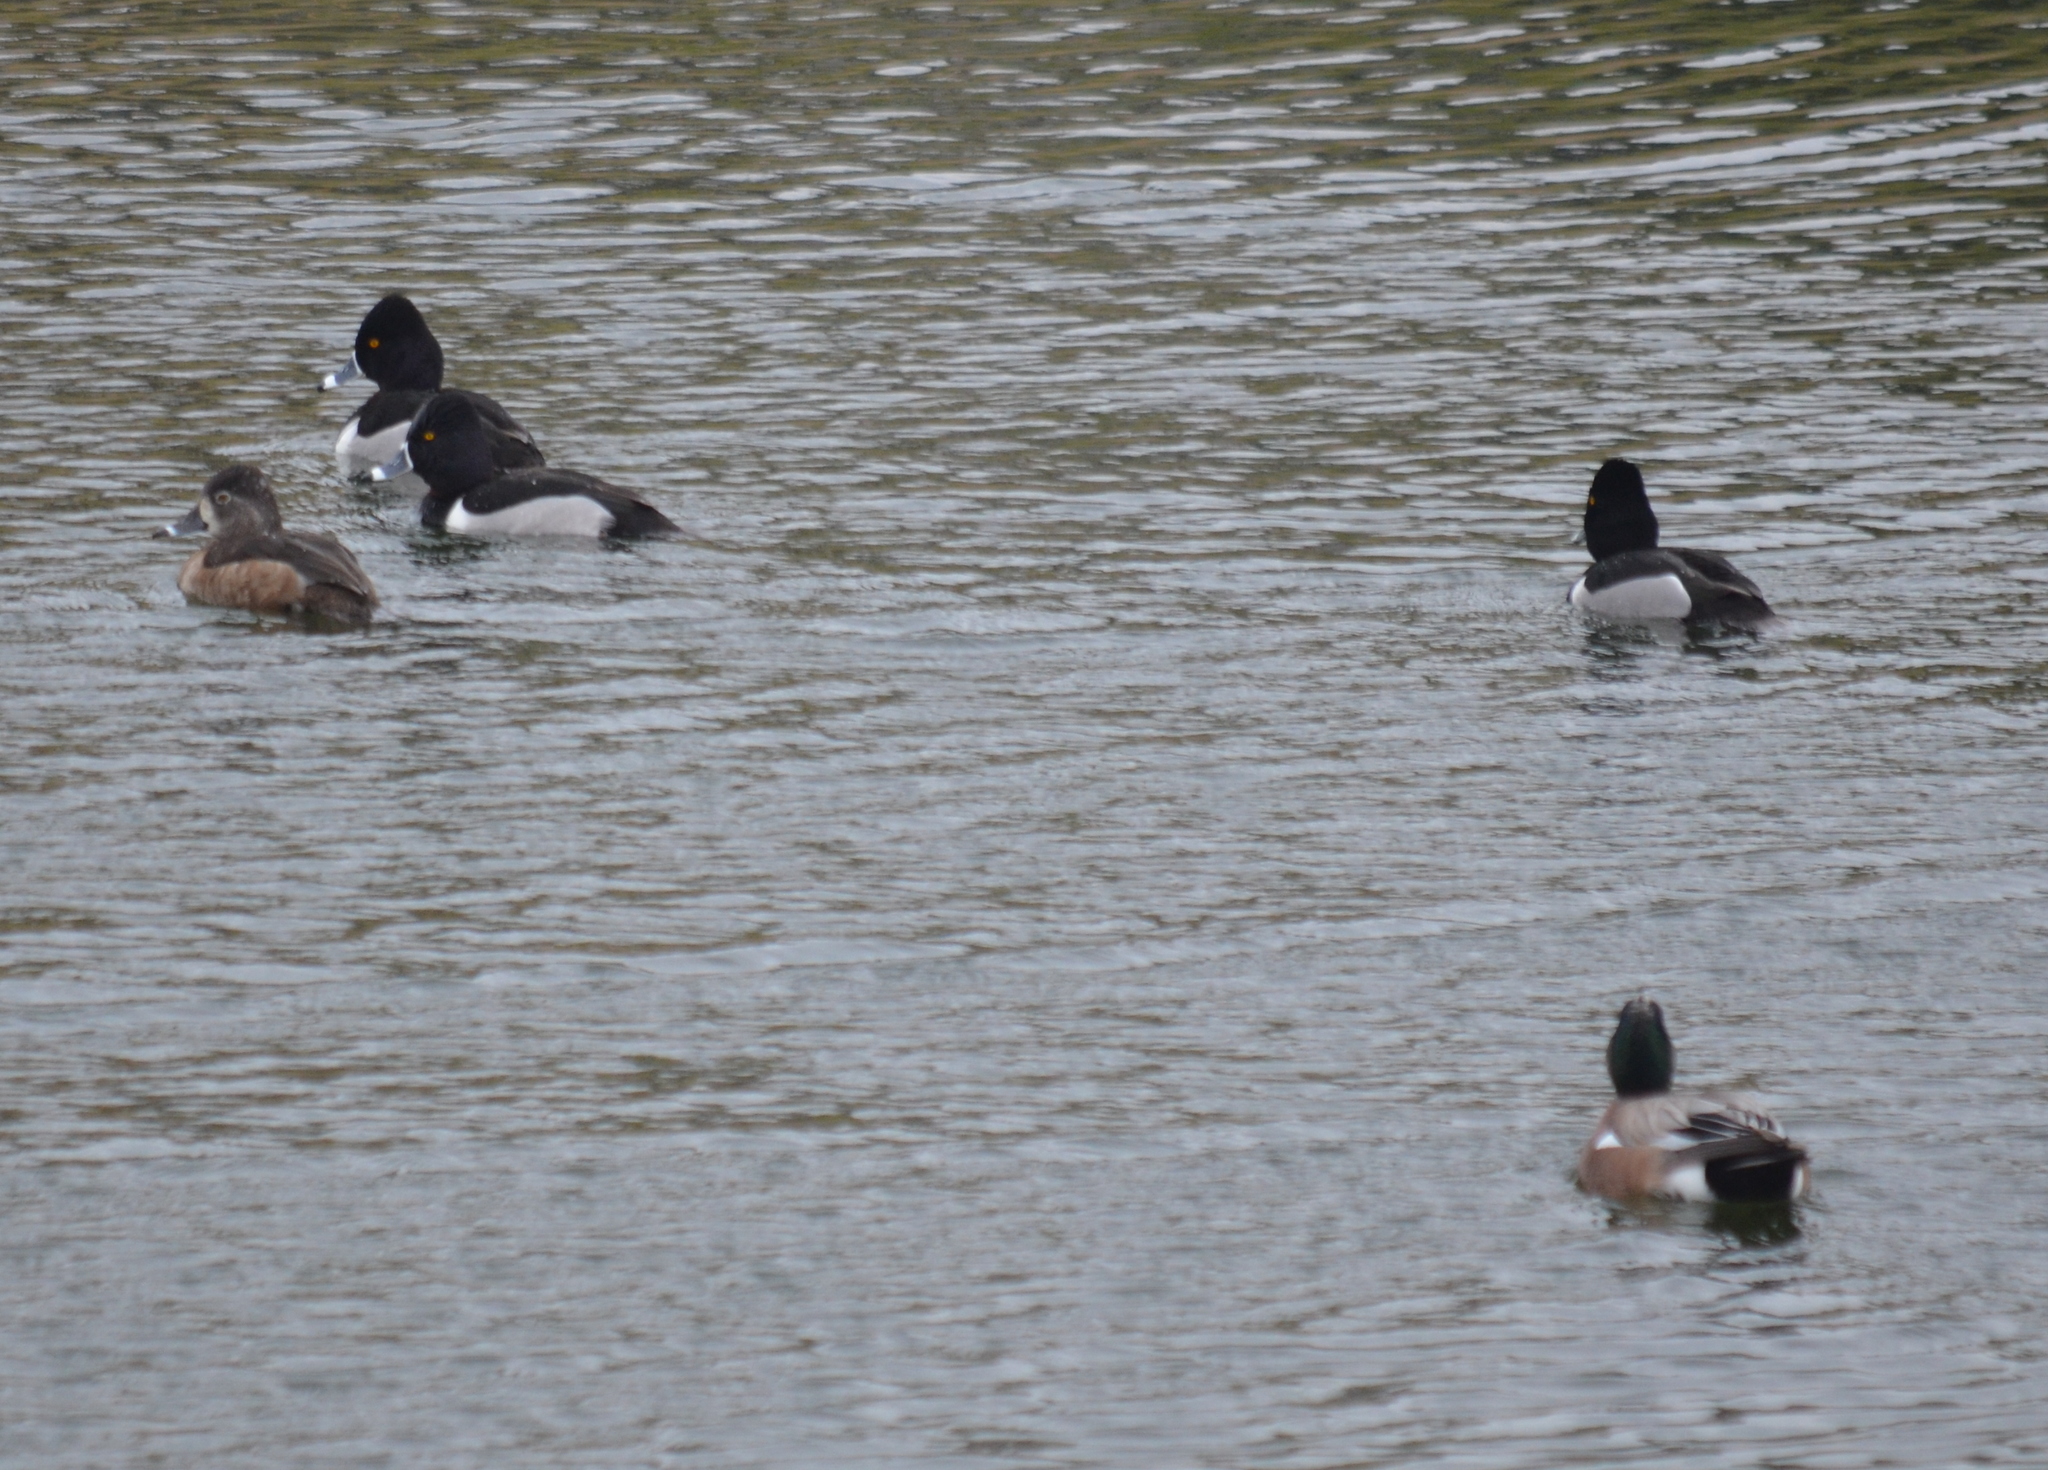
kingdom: Animalia
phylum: Chordata
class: Aves
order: Anseriformes
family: Anatidae
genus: Aythya
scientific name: Aythya collaris
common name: Ring-necked duck
